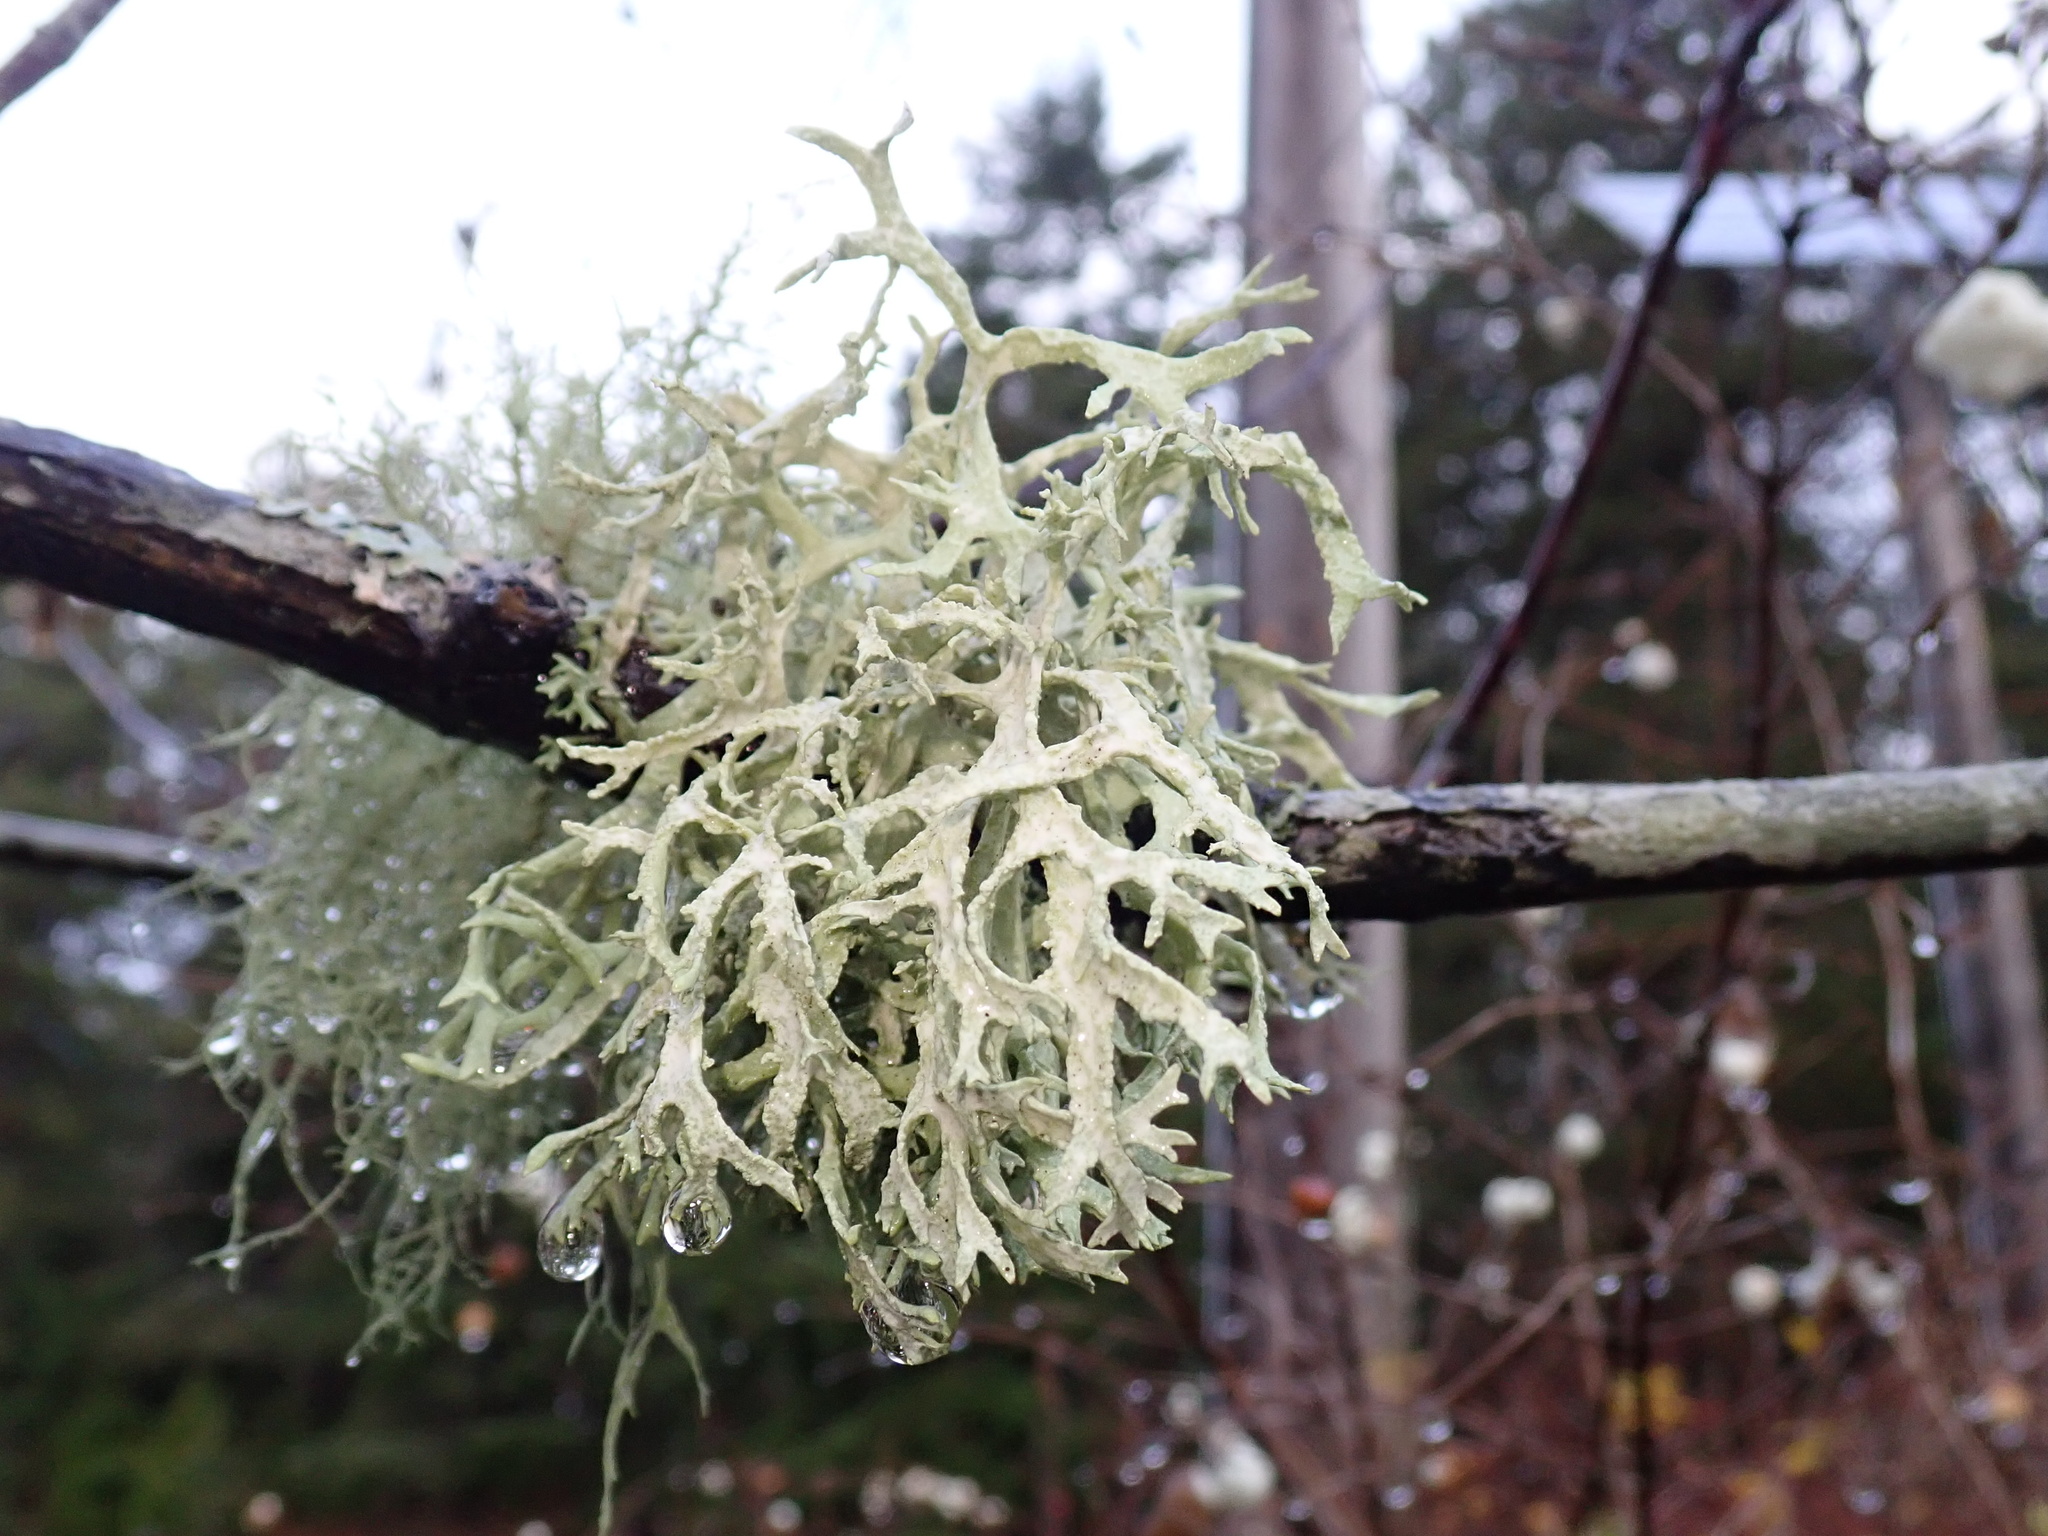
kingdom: Fungi
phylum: Ascomycota
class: Lecanoromycetes
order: Lecanorales
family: Parmeliaceae
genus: Evernia
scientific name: Evernia prunastri
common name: Oak moss
